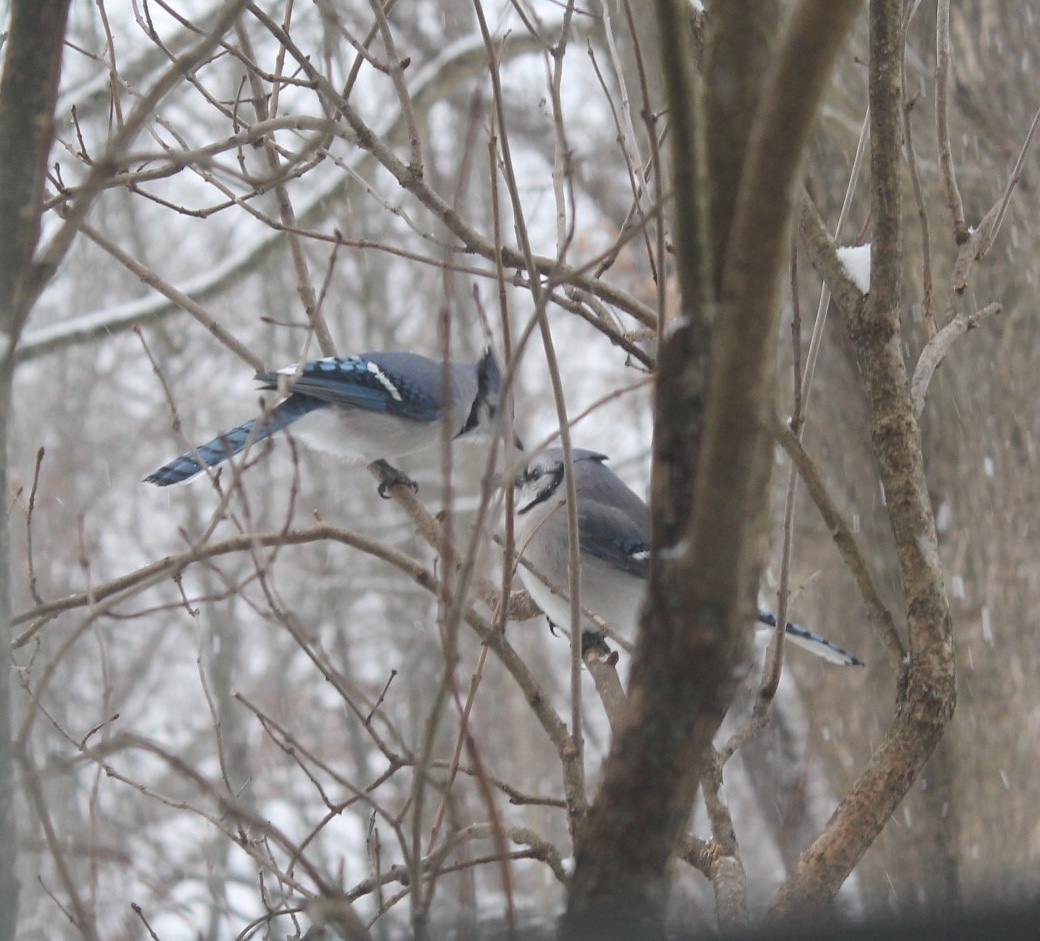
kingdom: Animalia
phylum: Chordata
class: Aves
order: Passeriformes
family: Corvidae
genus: Cyanocitta
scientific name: Cyanocitta cristata
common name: Blue jay
